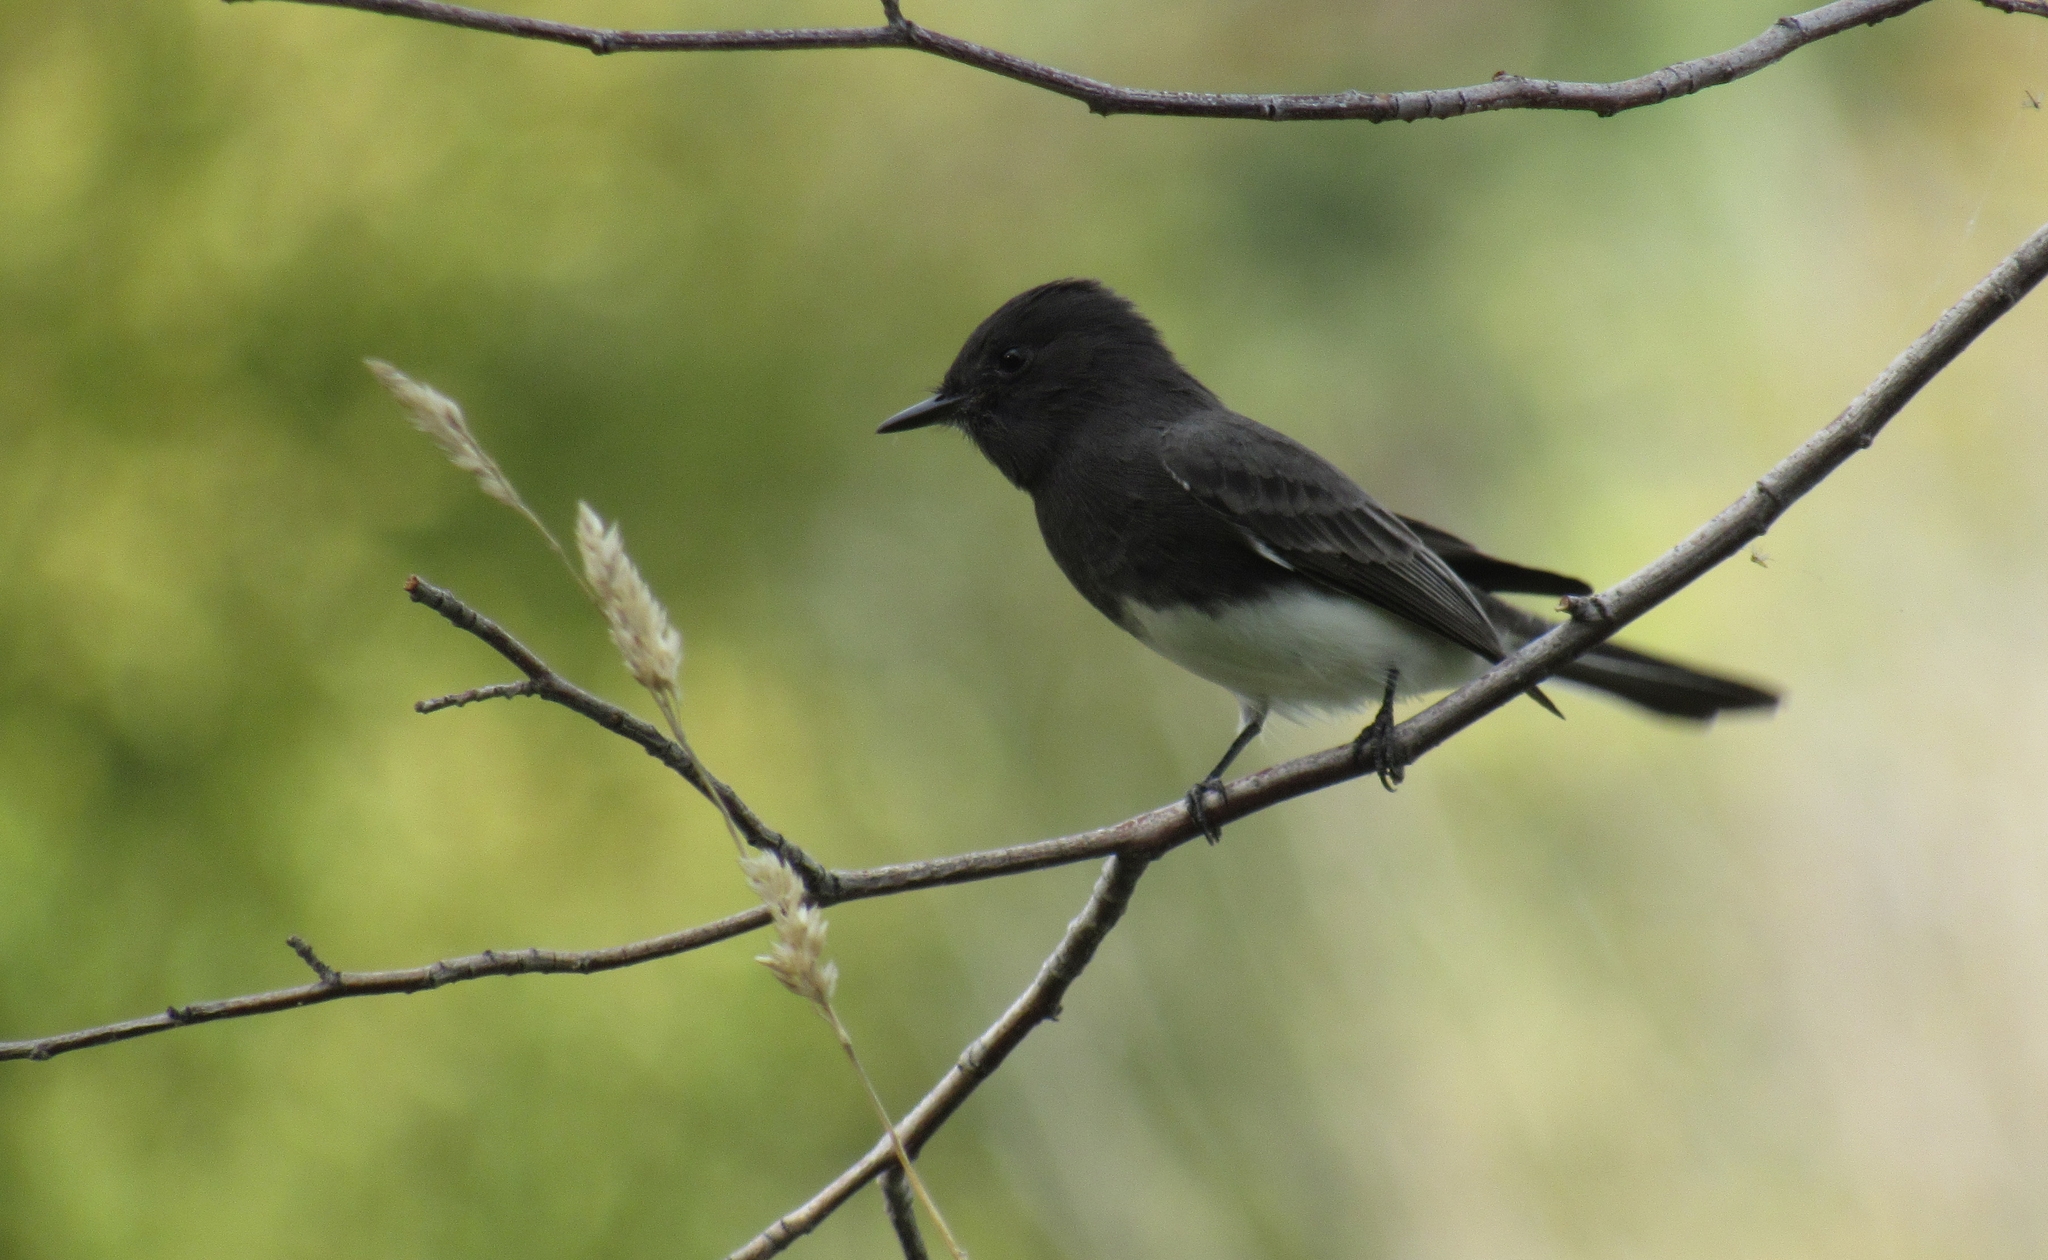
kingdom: Animalia
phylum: Chordata
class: Aves
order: Passeriformes
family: Tyrannidae
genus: Sayornis
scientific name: Sayornis nigricans
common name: Black phoebe
